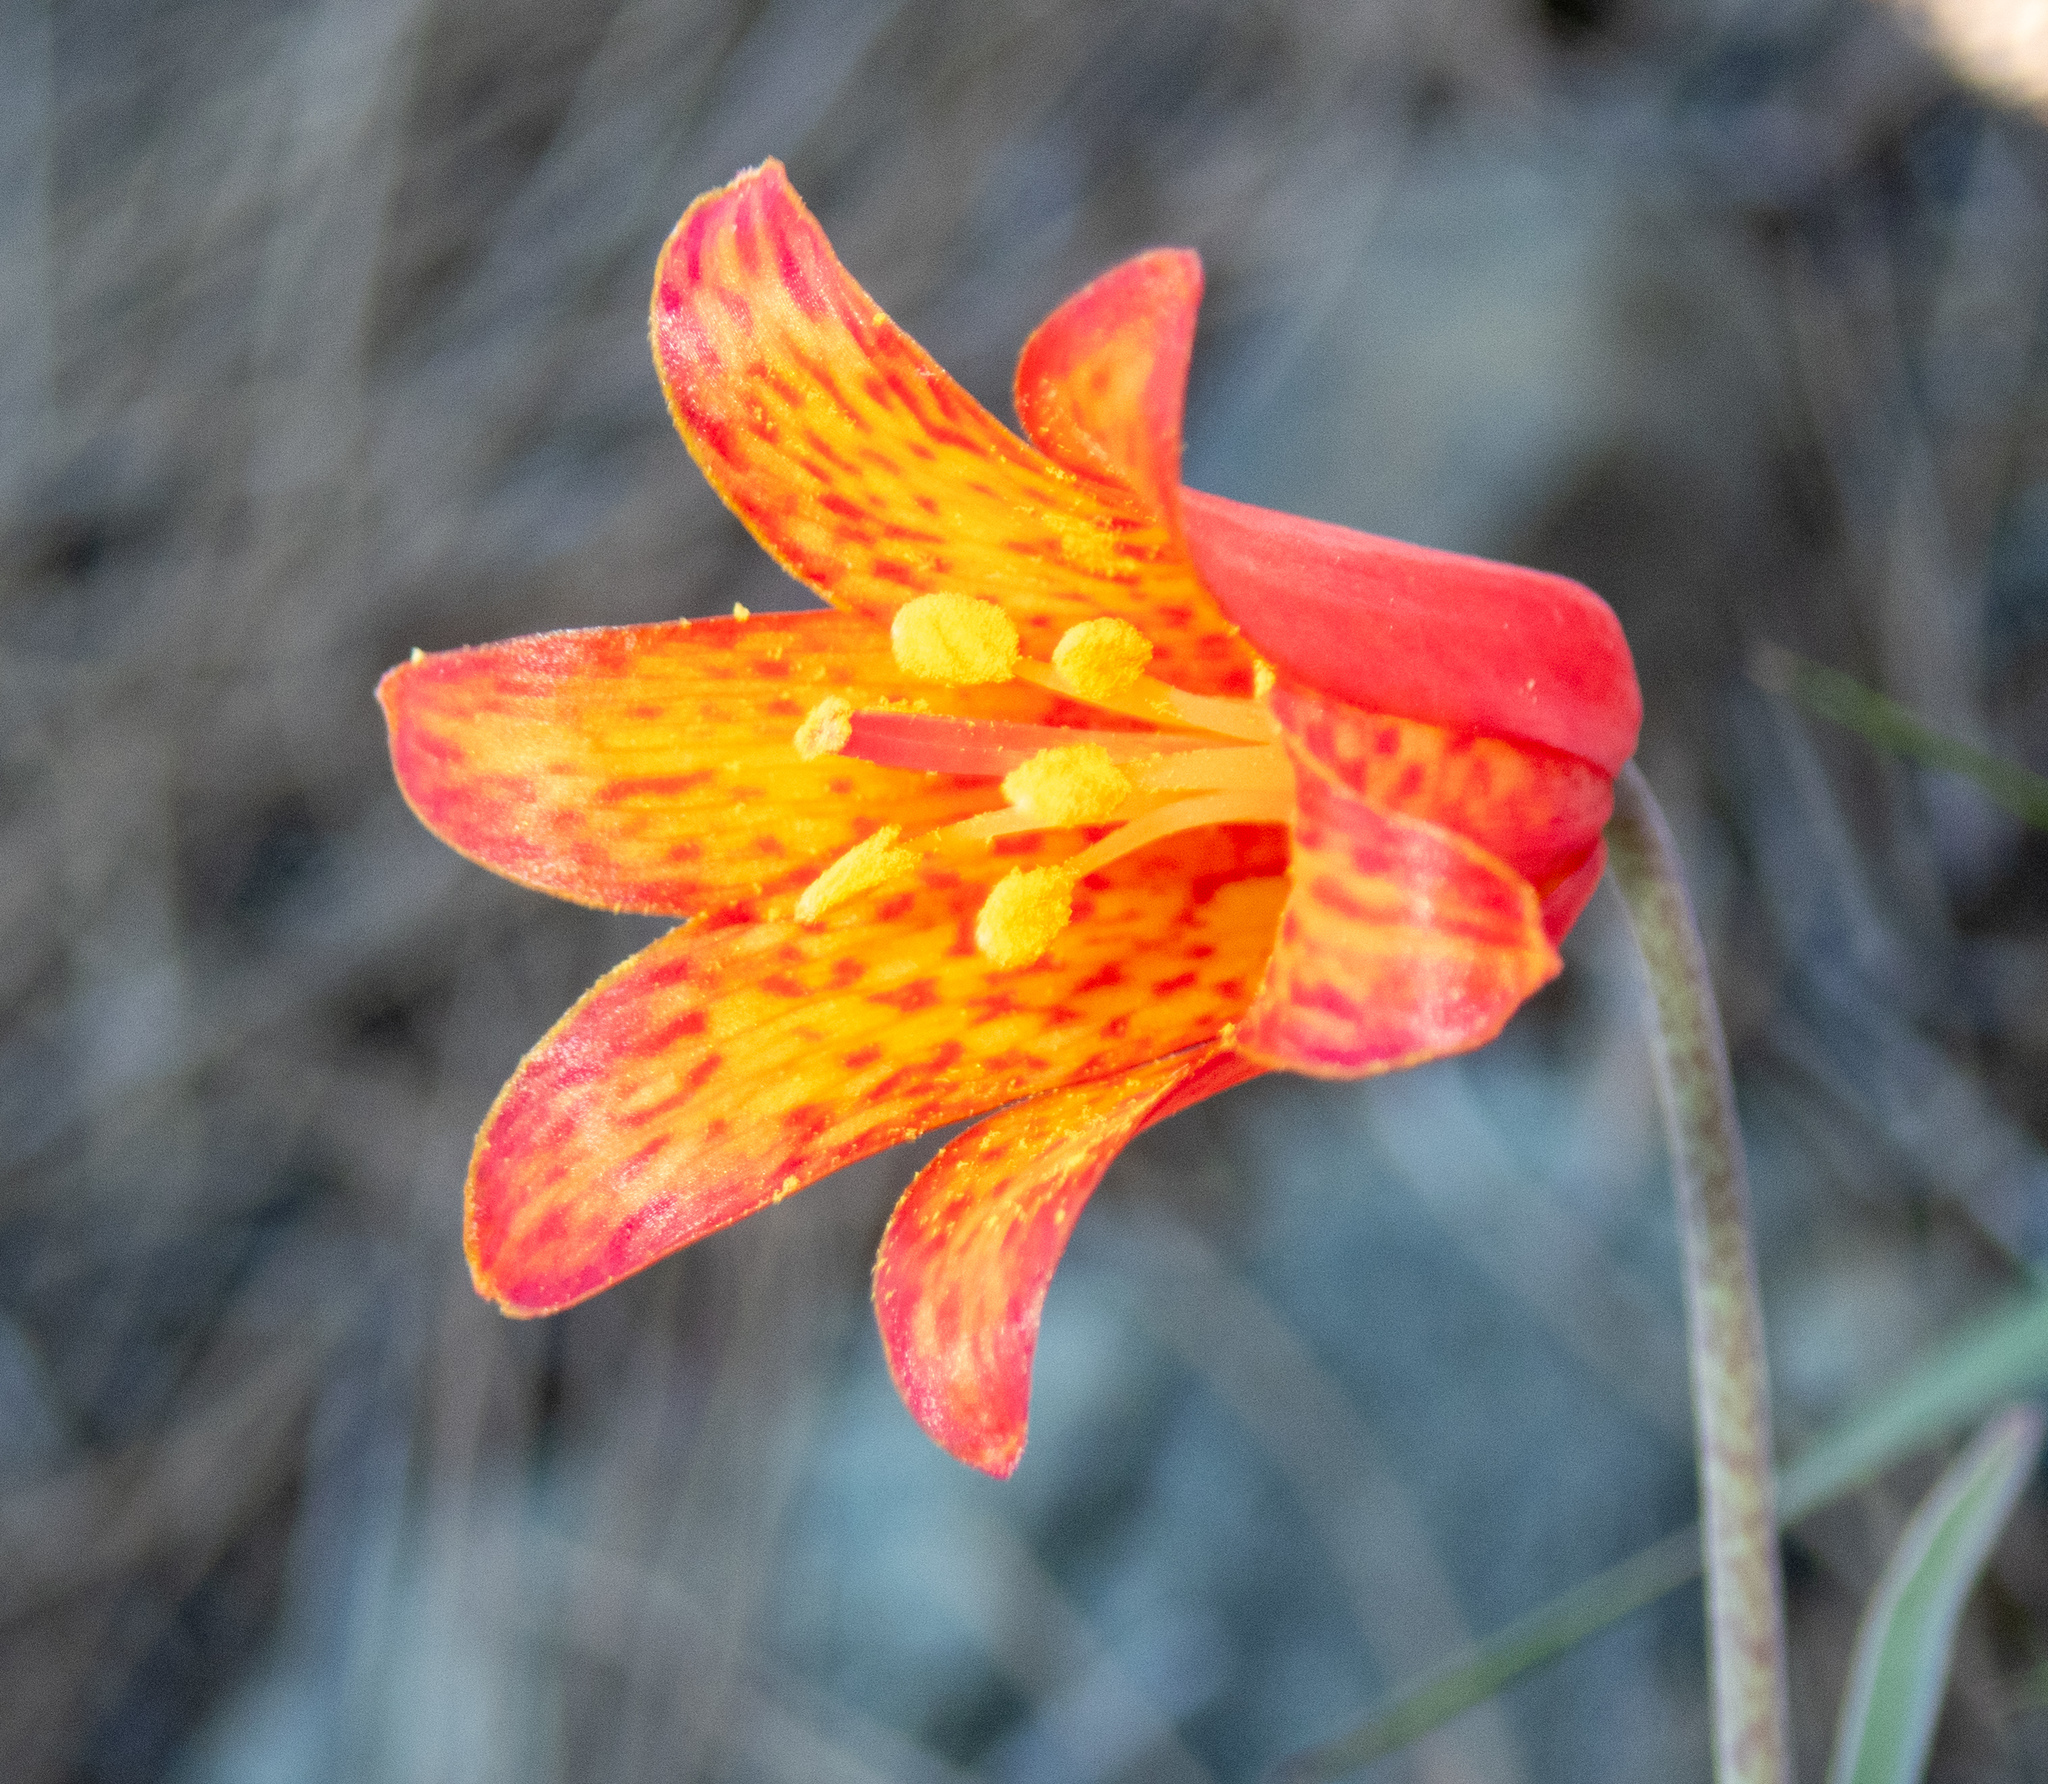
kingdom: Plantae
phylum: Tracheophyta
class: Liliopsida
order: Liliales
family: Liliaceae
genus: Fritillaria
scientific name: Fritillaria recurva
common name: Scarlet fritillary
